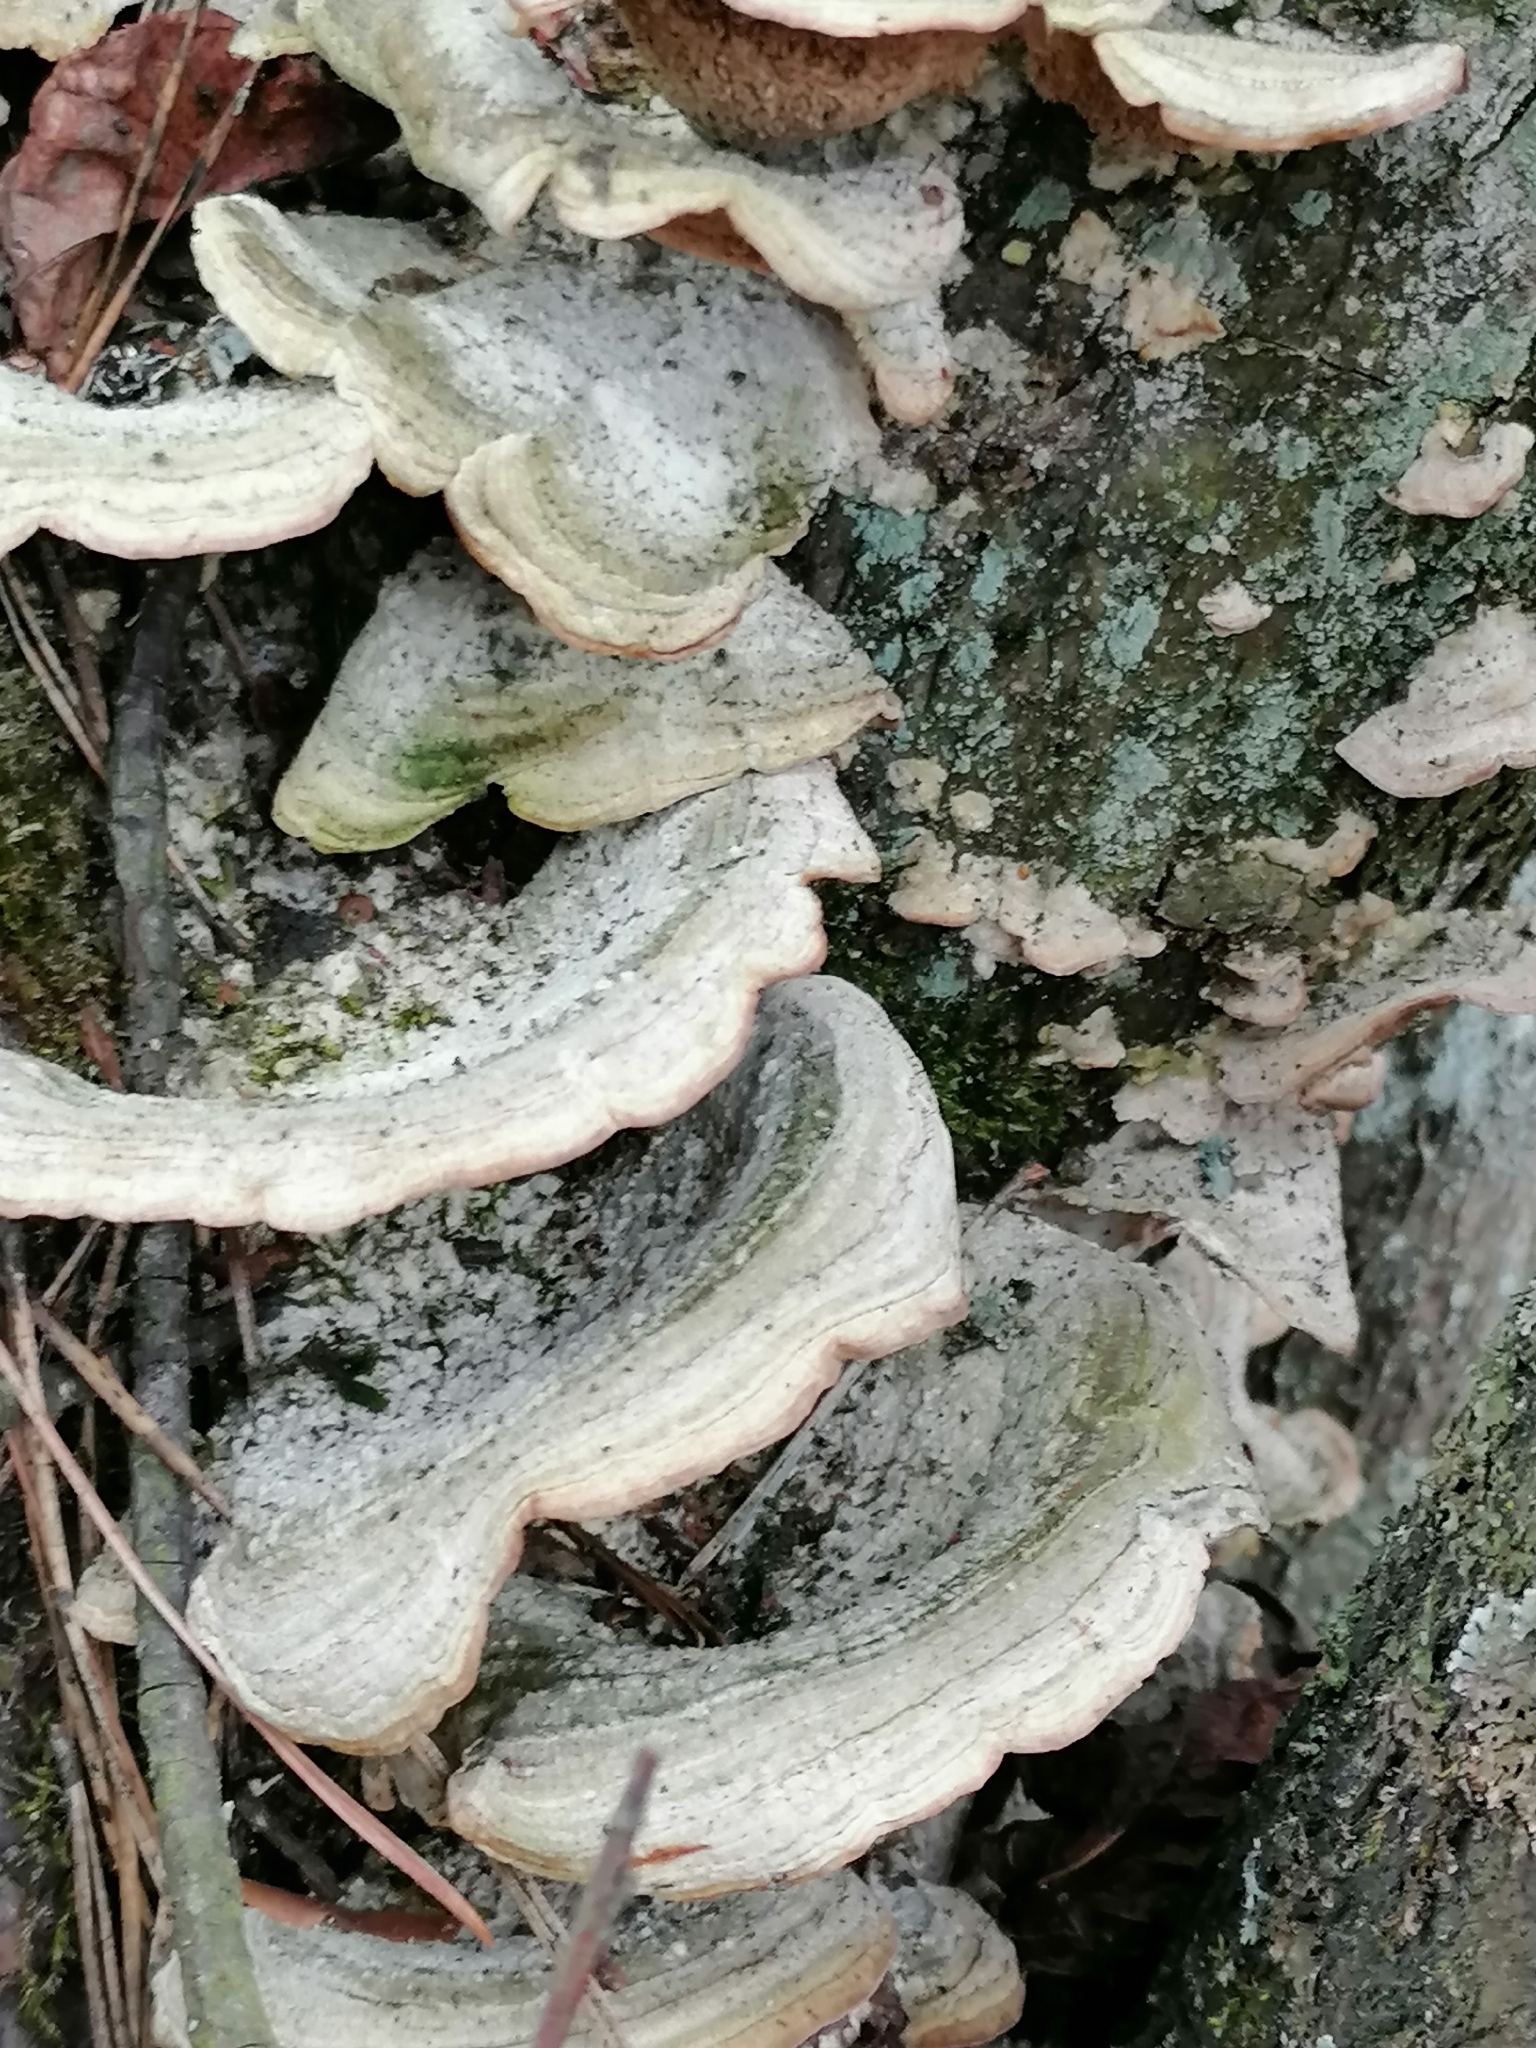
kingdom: Fungi
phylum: Basidiomycota
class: Agaricomycetes
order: Hymenochaetales
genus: Trichaptum
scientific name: Trichaptum biforme
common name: Violet-toothed polypore
